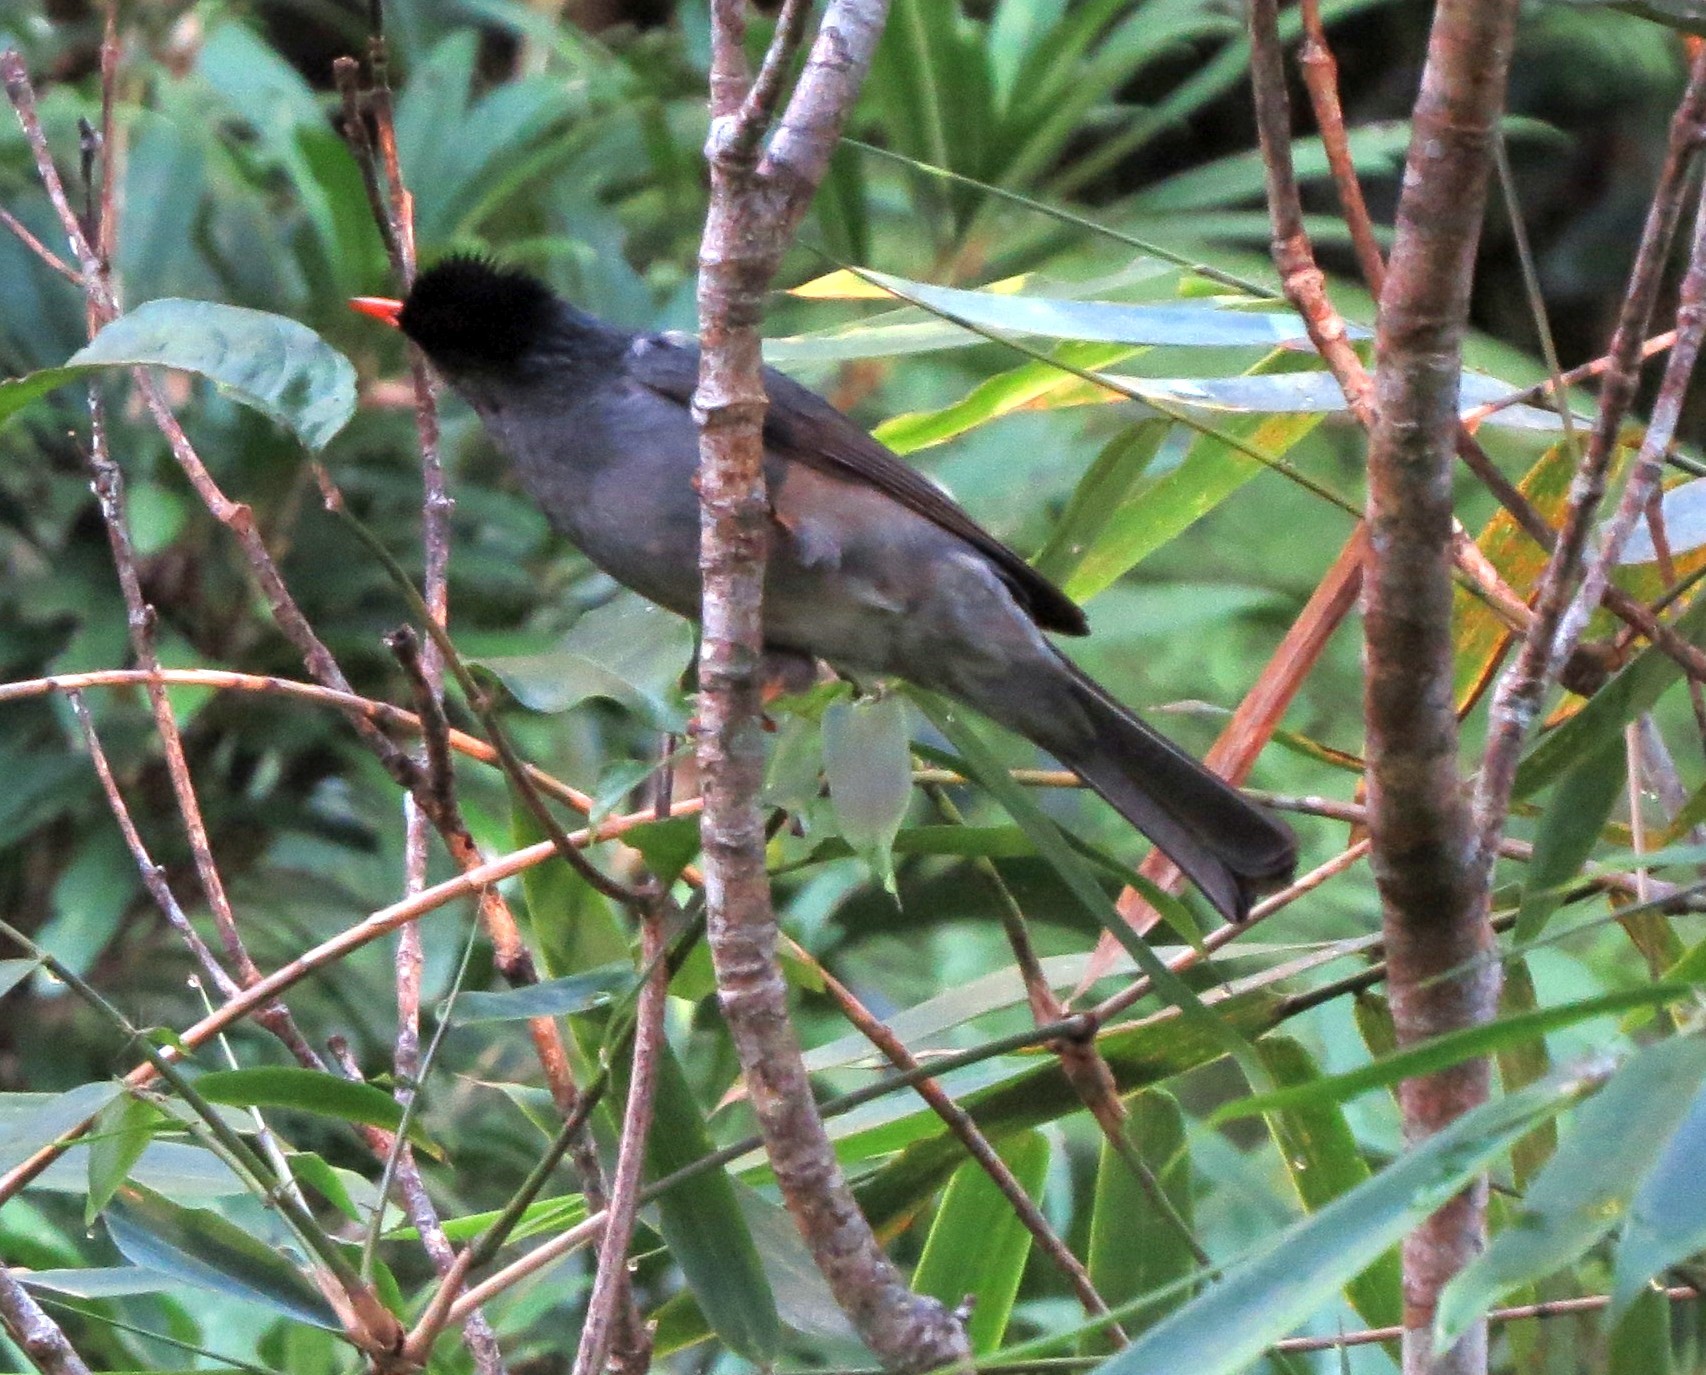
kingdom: Animalia
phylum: Chordata
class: Aves
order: Passeriformes
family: Pycnonotidae
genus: Hypsipetes
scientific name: Hypsipetes madagascariensis
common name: Malagasy bulbul
